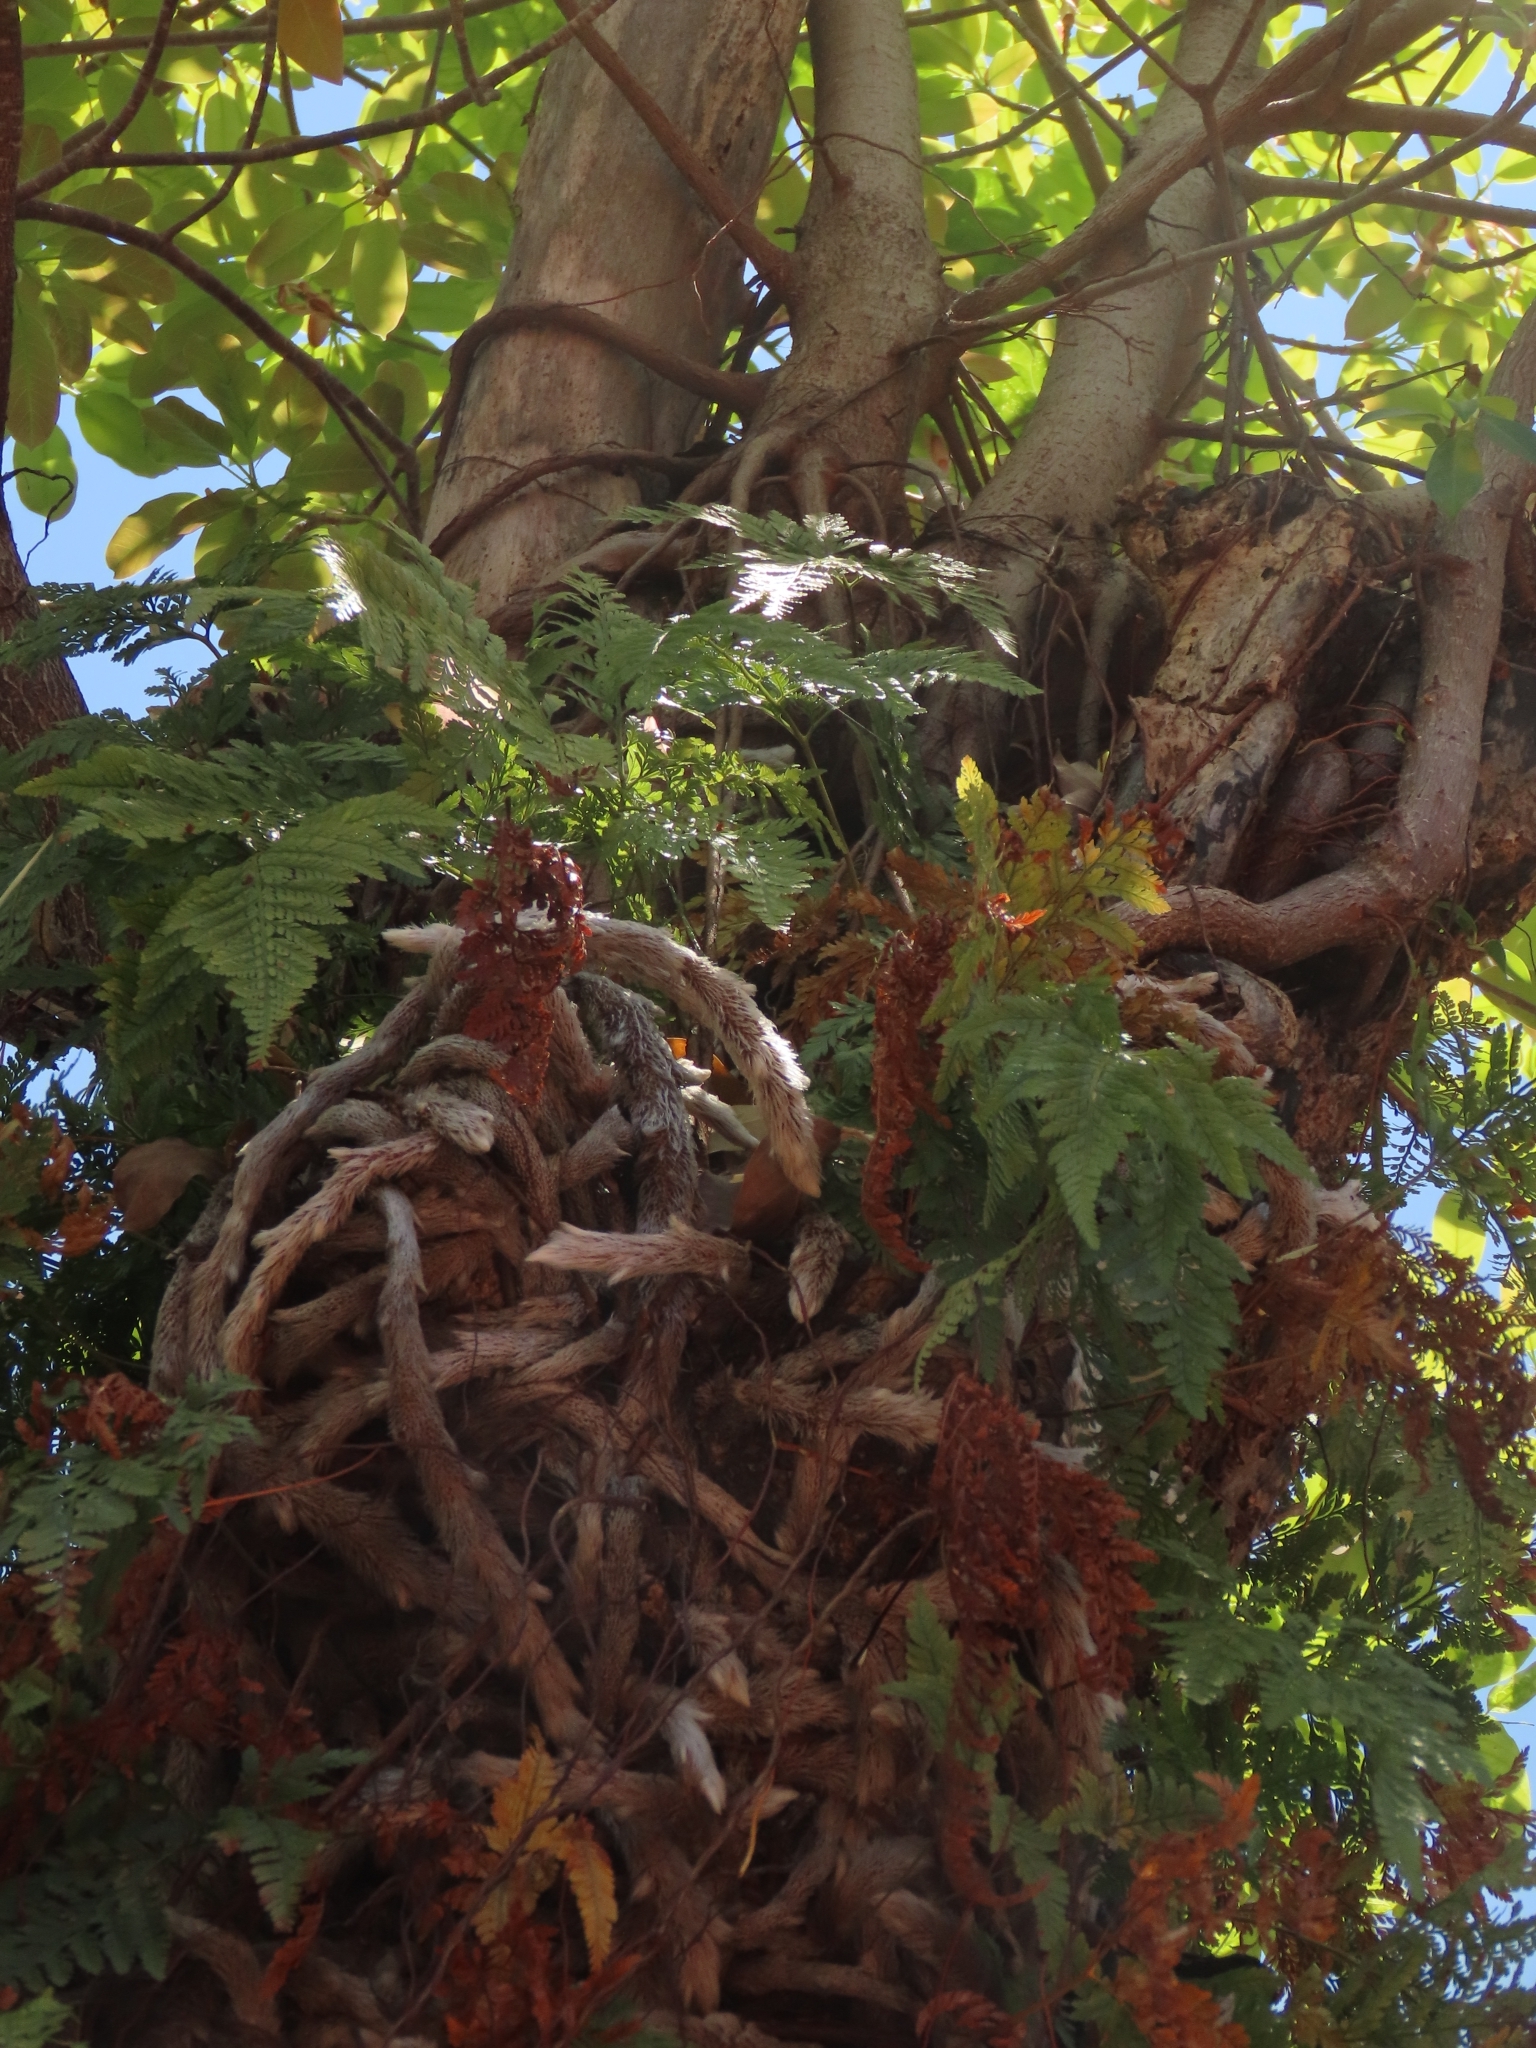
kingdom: Plantae
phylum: Tracheophyta
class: Polypodiopsida
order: Polypodiales
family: Davalliaceae
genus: Davallia
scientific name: Davallia griffithiana
